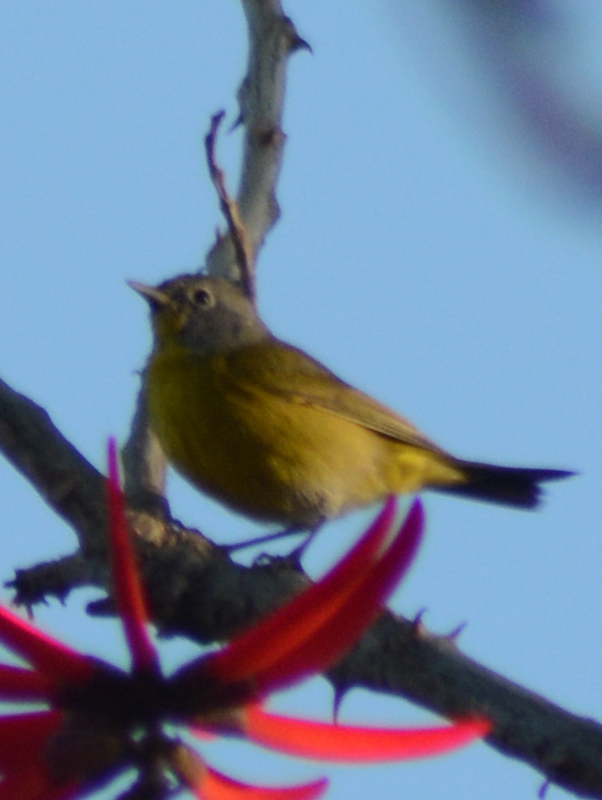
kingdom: Animalia
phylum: Chordata
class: Aves
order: Passeriformes
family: Parulidae
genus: Leiothlypis
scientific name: Leiothlypis ruficapilla
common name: Nashville warbler
